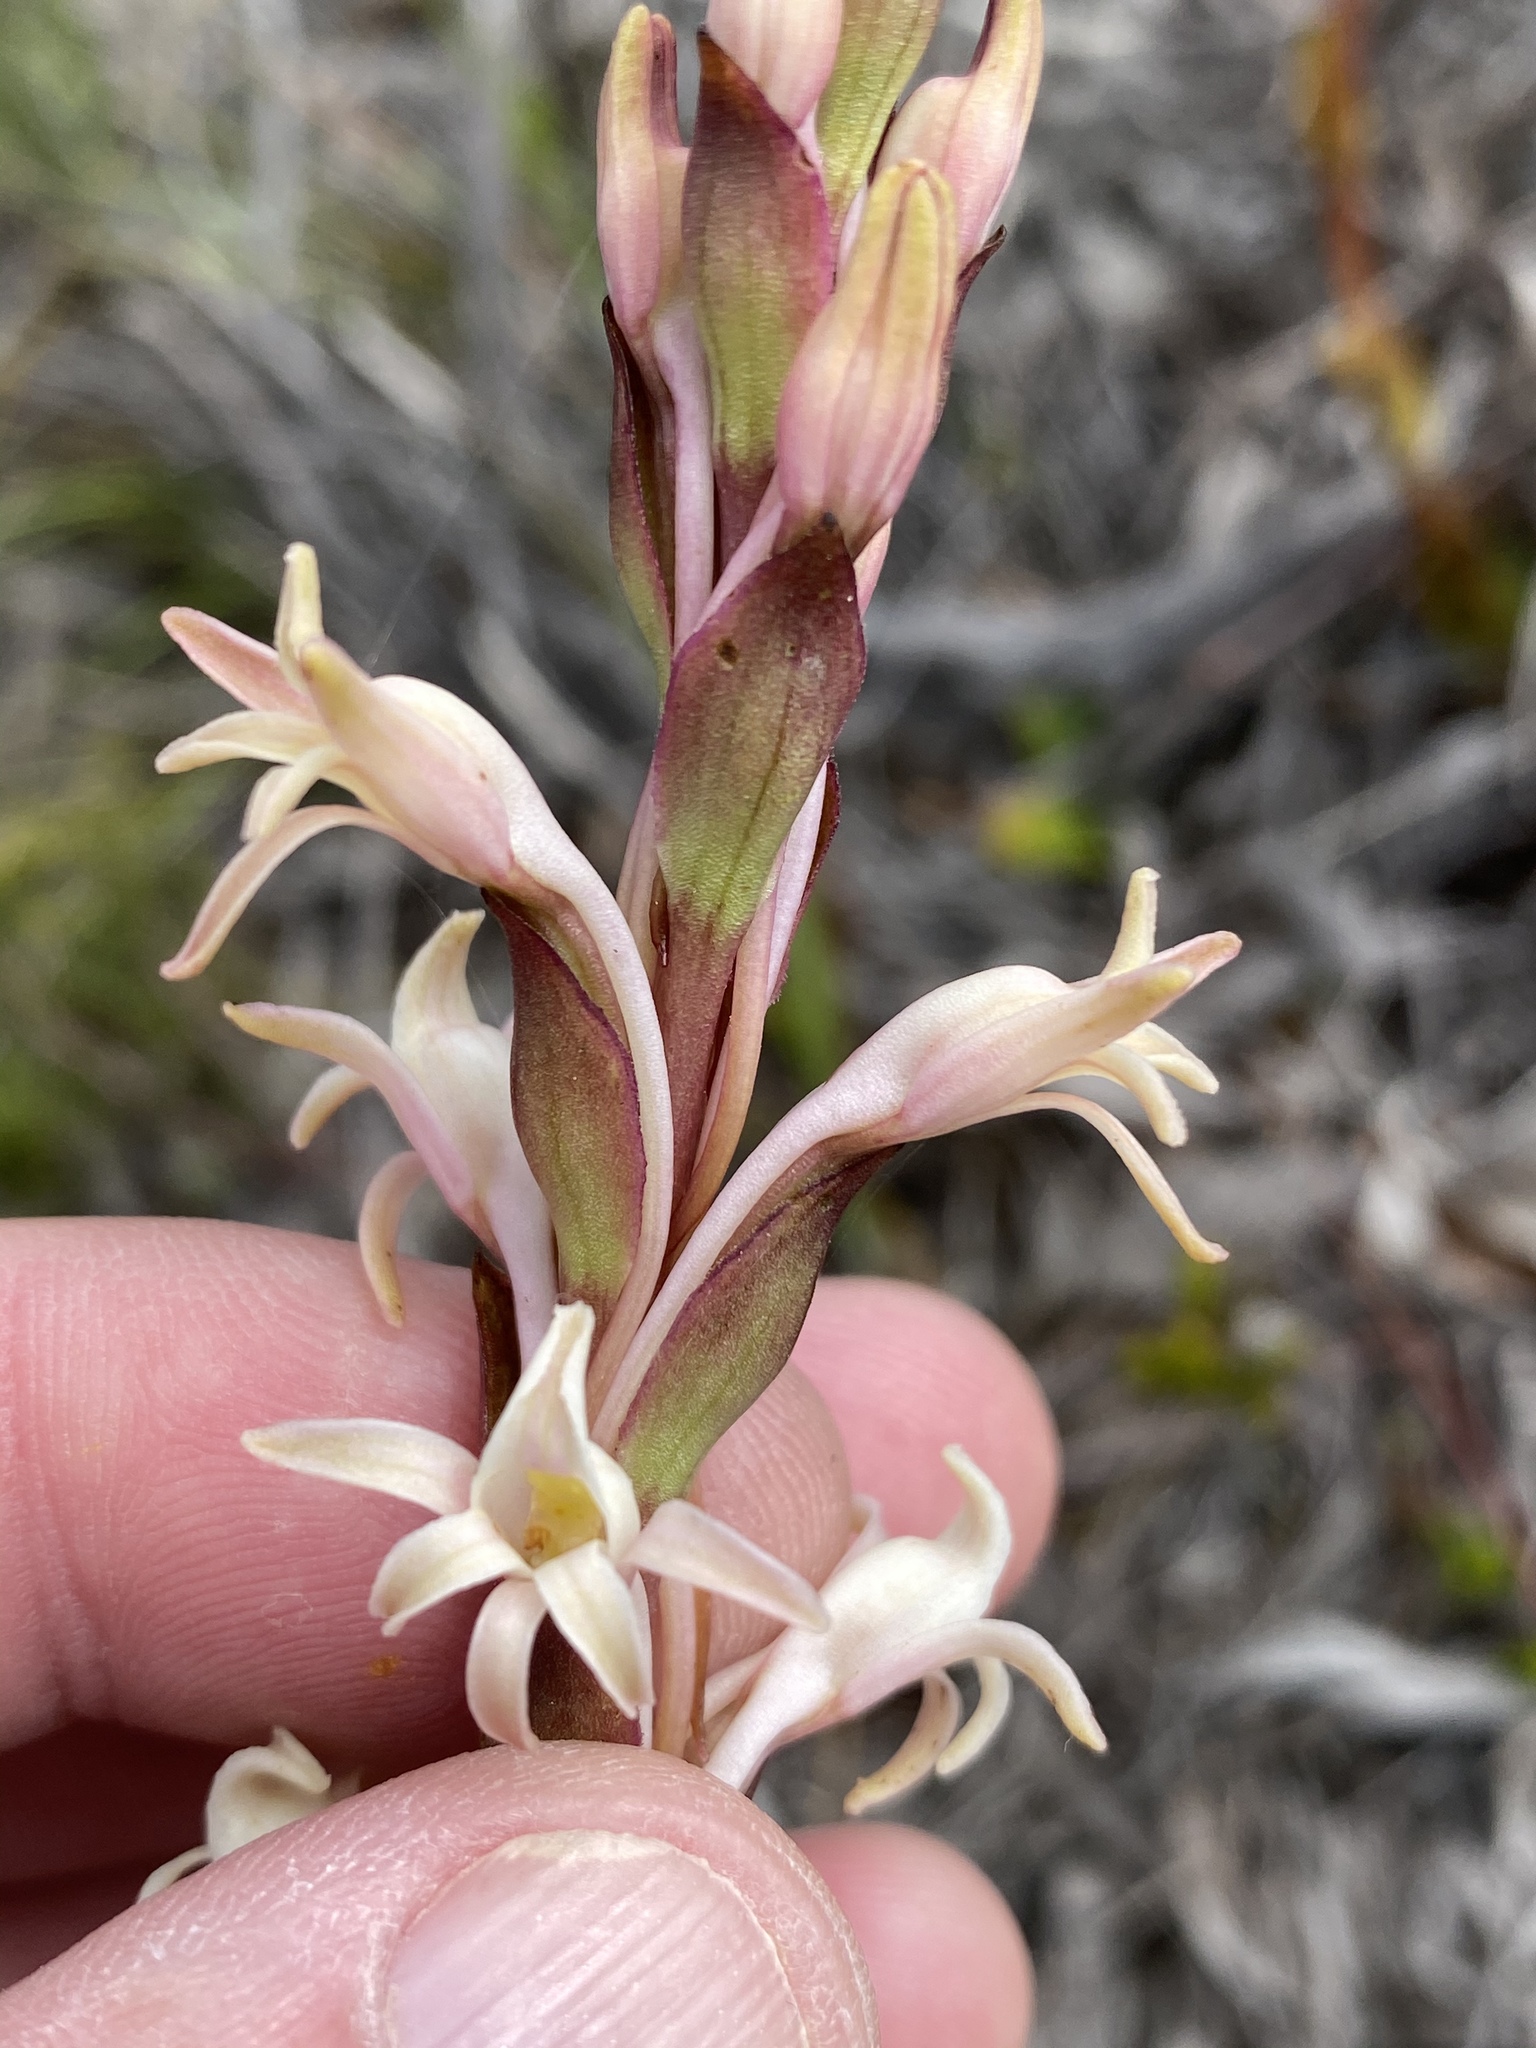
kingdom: Plantae
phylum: Tracheophyta
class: Liliopsida
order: Asparagales
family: Orchidaceae
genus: Satyrium
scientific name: Satyrium stenopetalum
